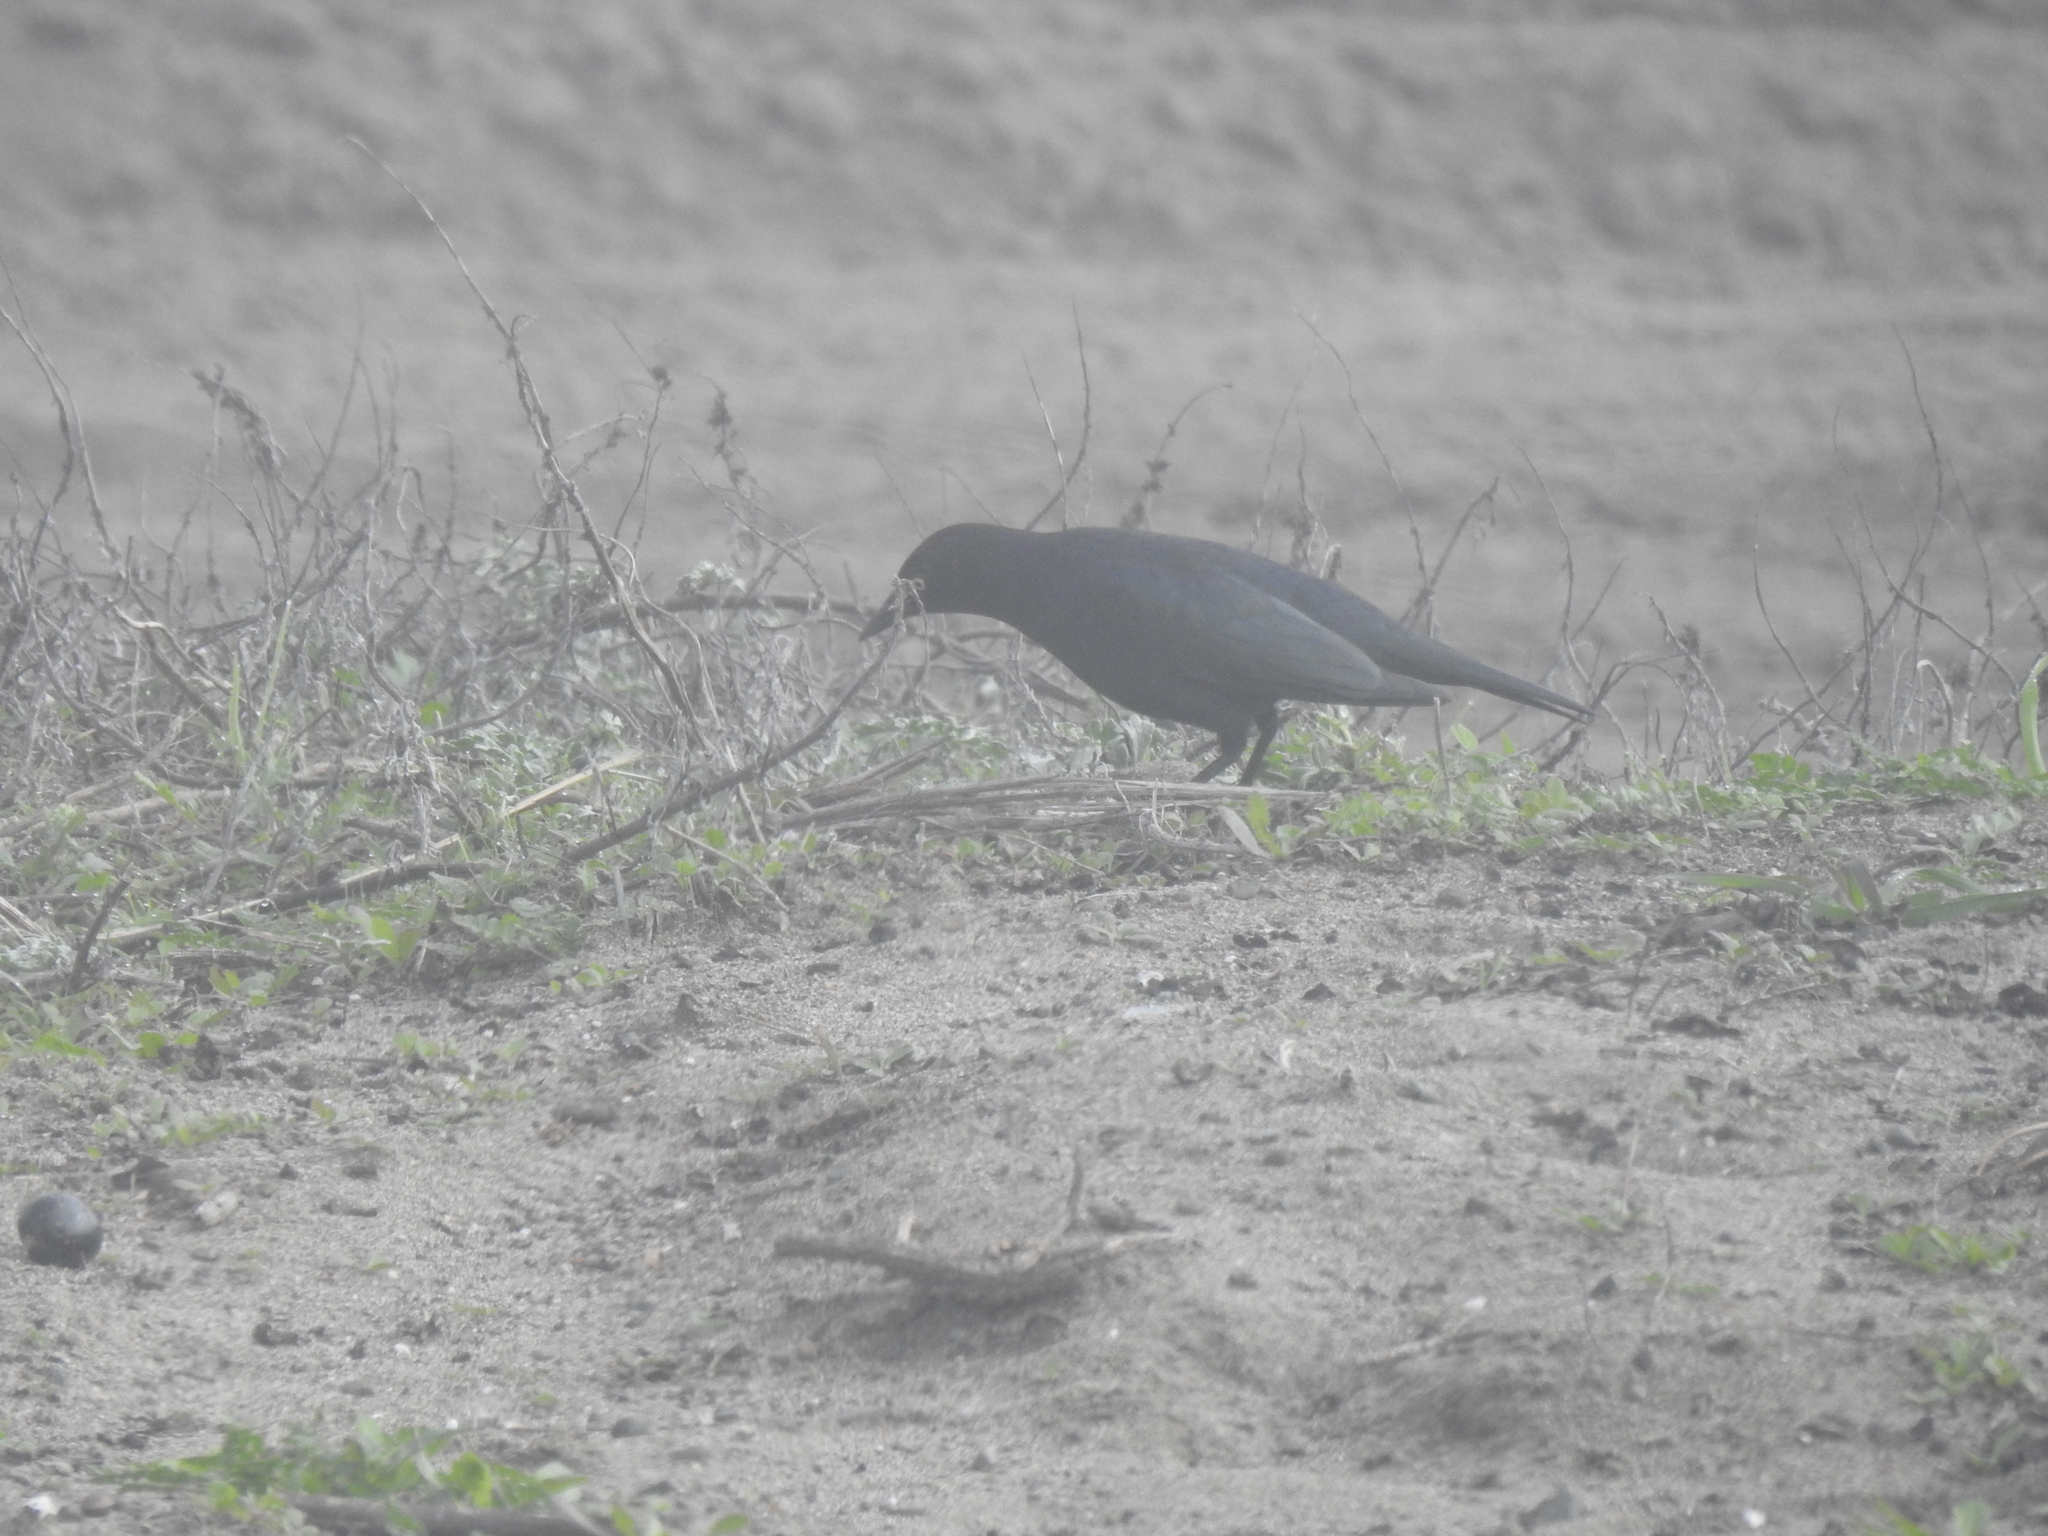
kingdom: Animalia
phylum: Chordata
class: Aves
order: Passeriformes
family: Icteridae
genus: Euphagus
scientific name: Euphagus cyanocephalus
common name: Brewer's blackbird
